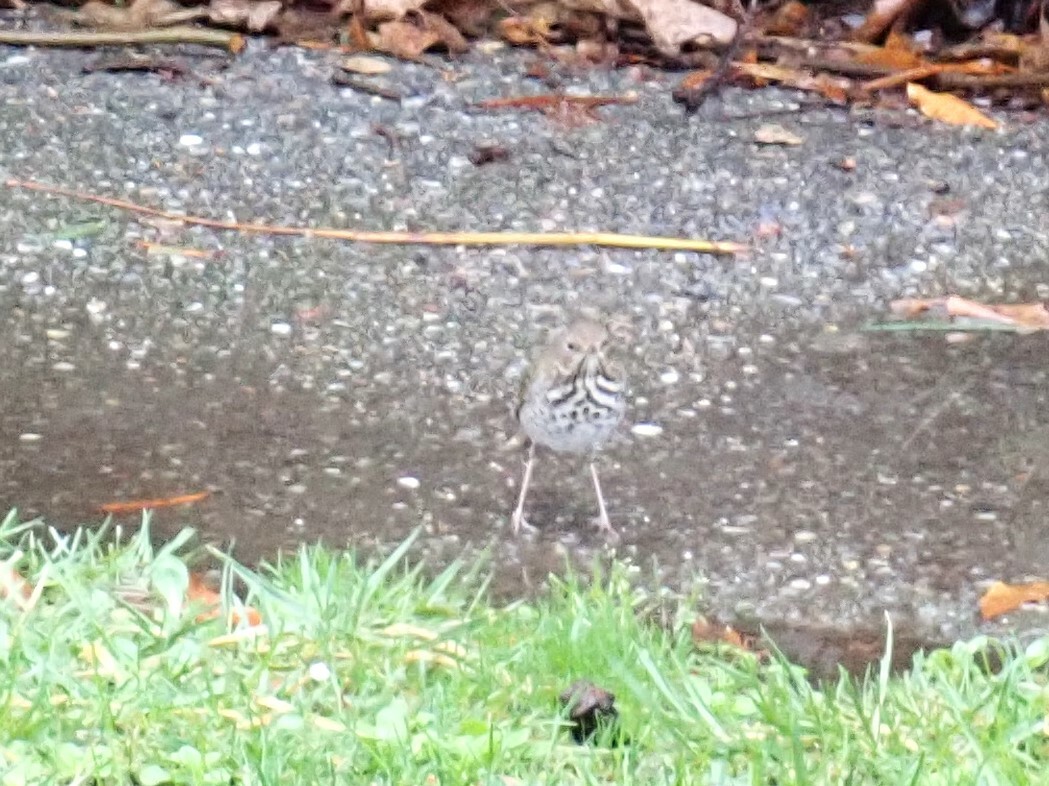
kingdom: Animalia
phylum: Chordata
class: Aves
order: Passeriformes
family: Turdidae
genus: Catharus
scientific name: Catharus guttatus
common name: Hermit thrush
